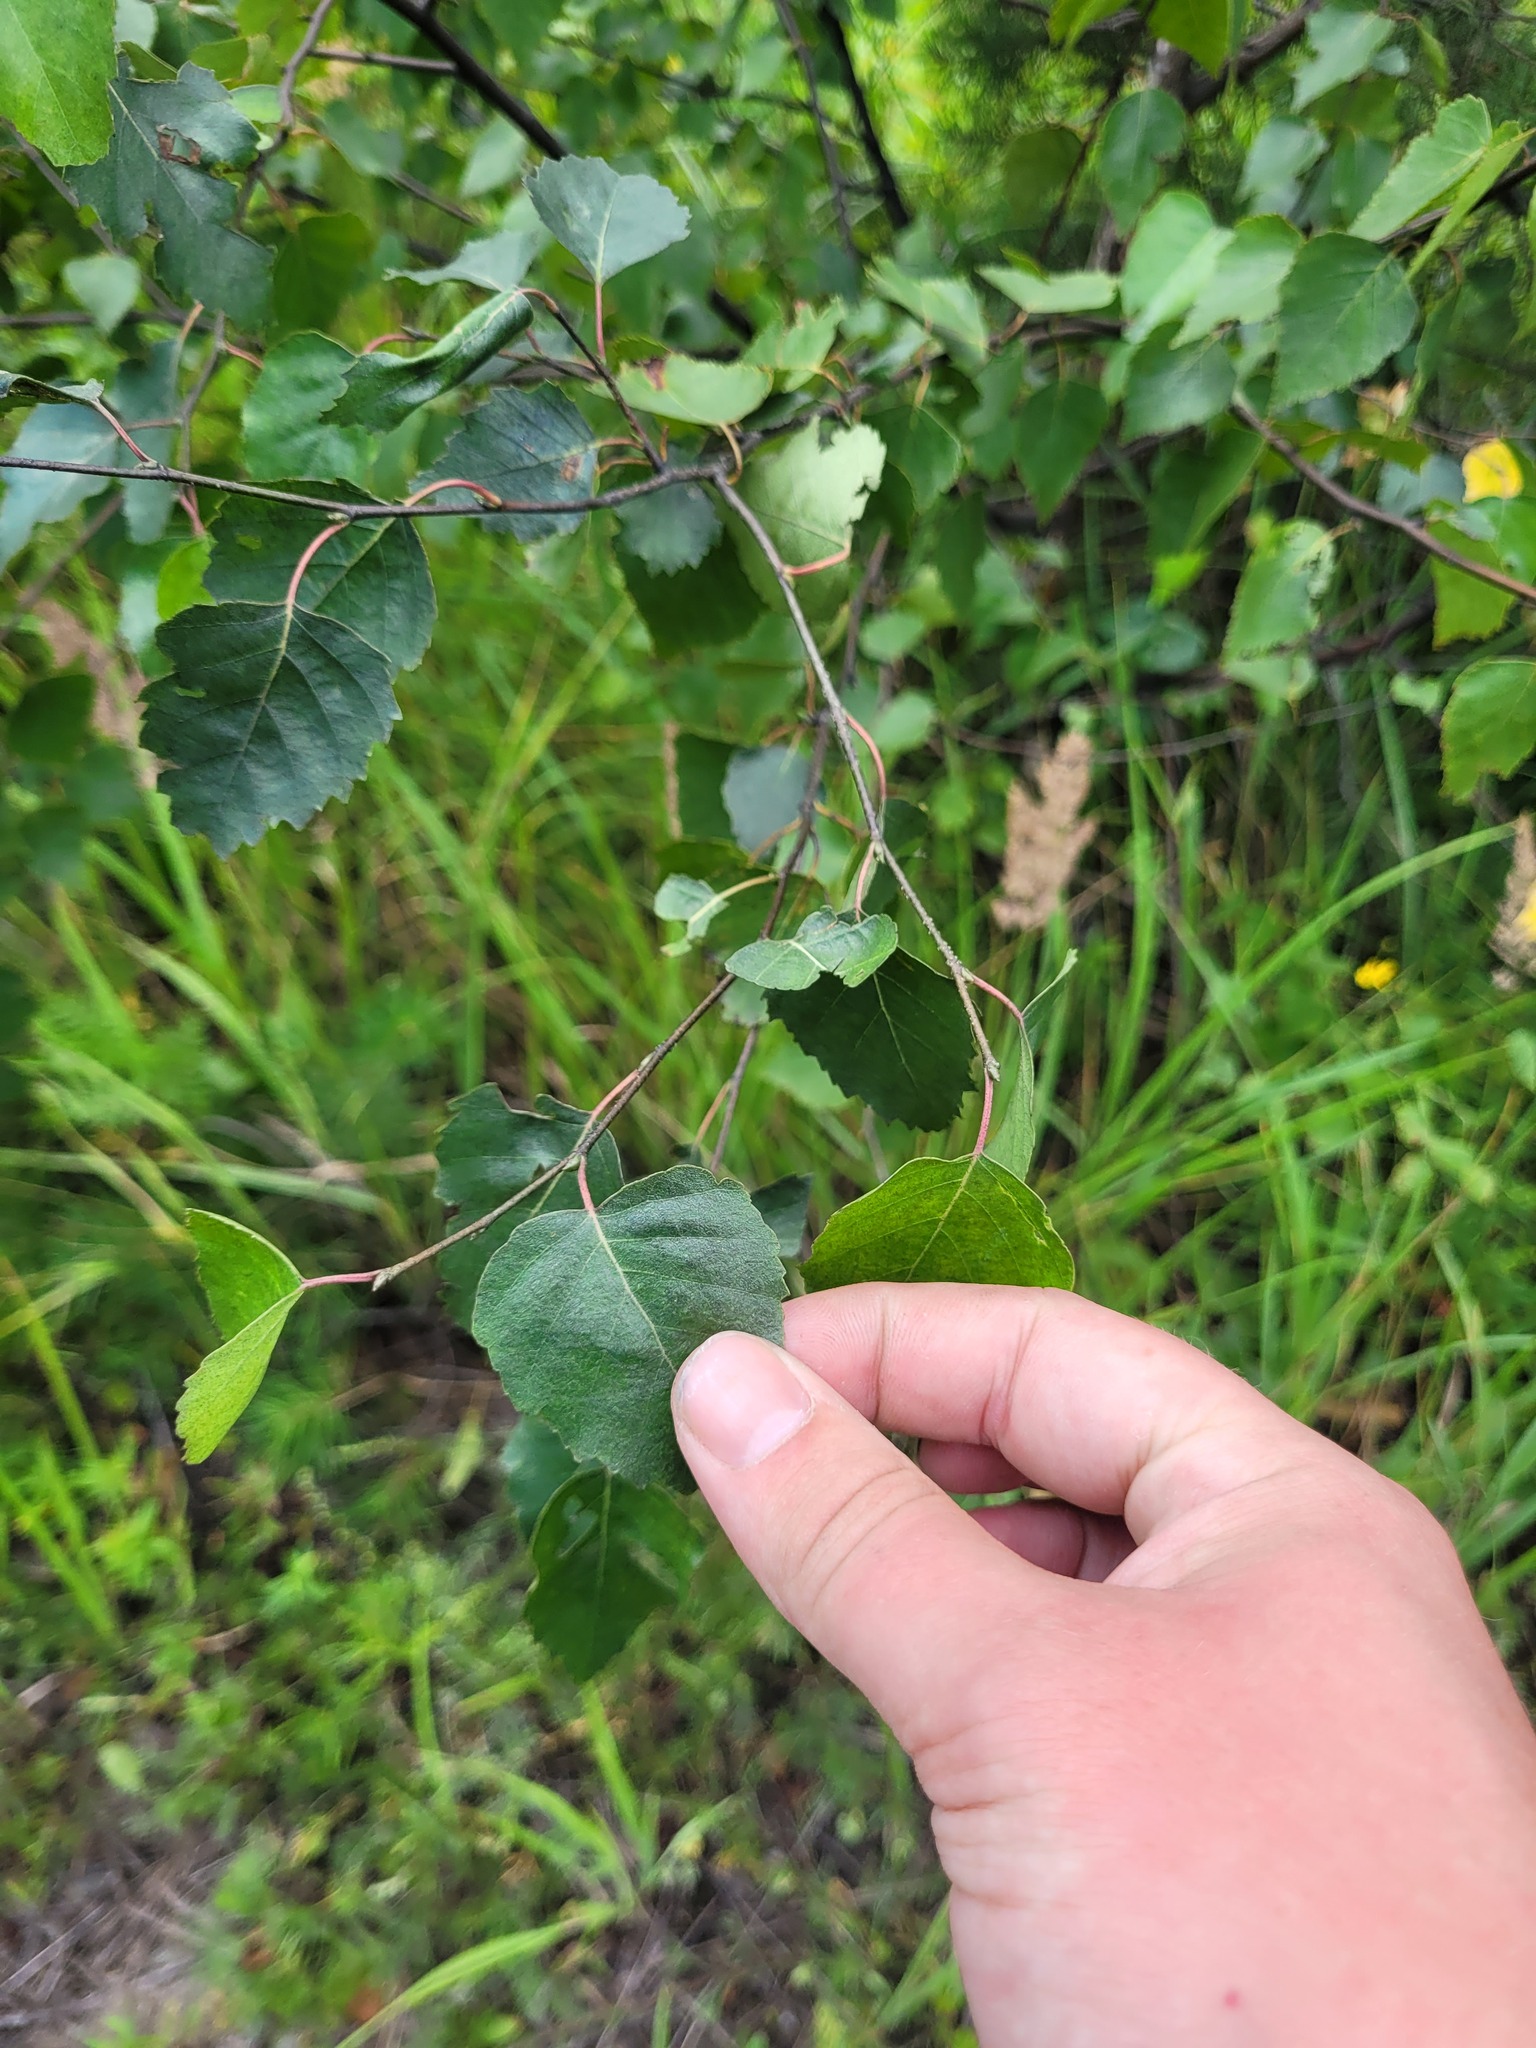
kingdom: Plantae
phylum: Tracheophyta
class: Magnoliopsida
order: Fagales
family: Betulaceae
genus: Betula
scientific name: Betula pendula
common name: Silver birch
